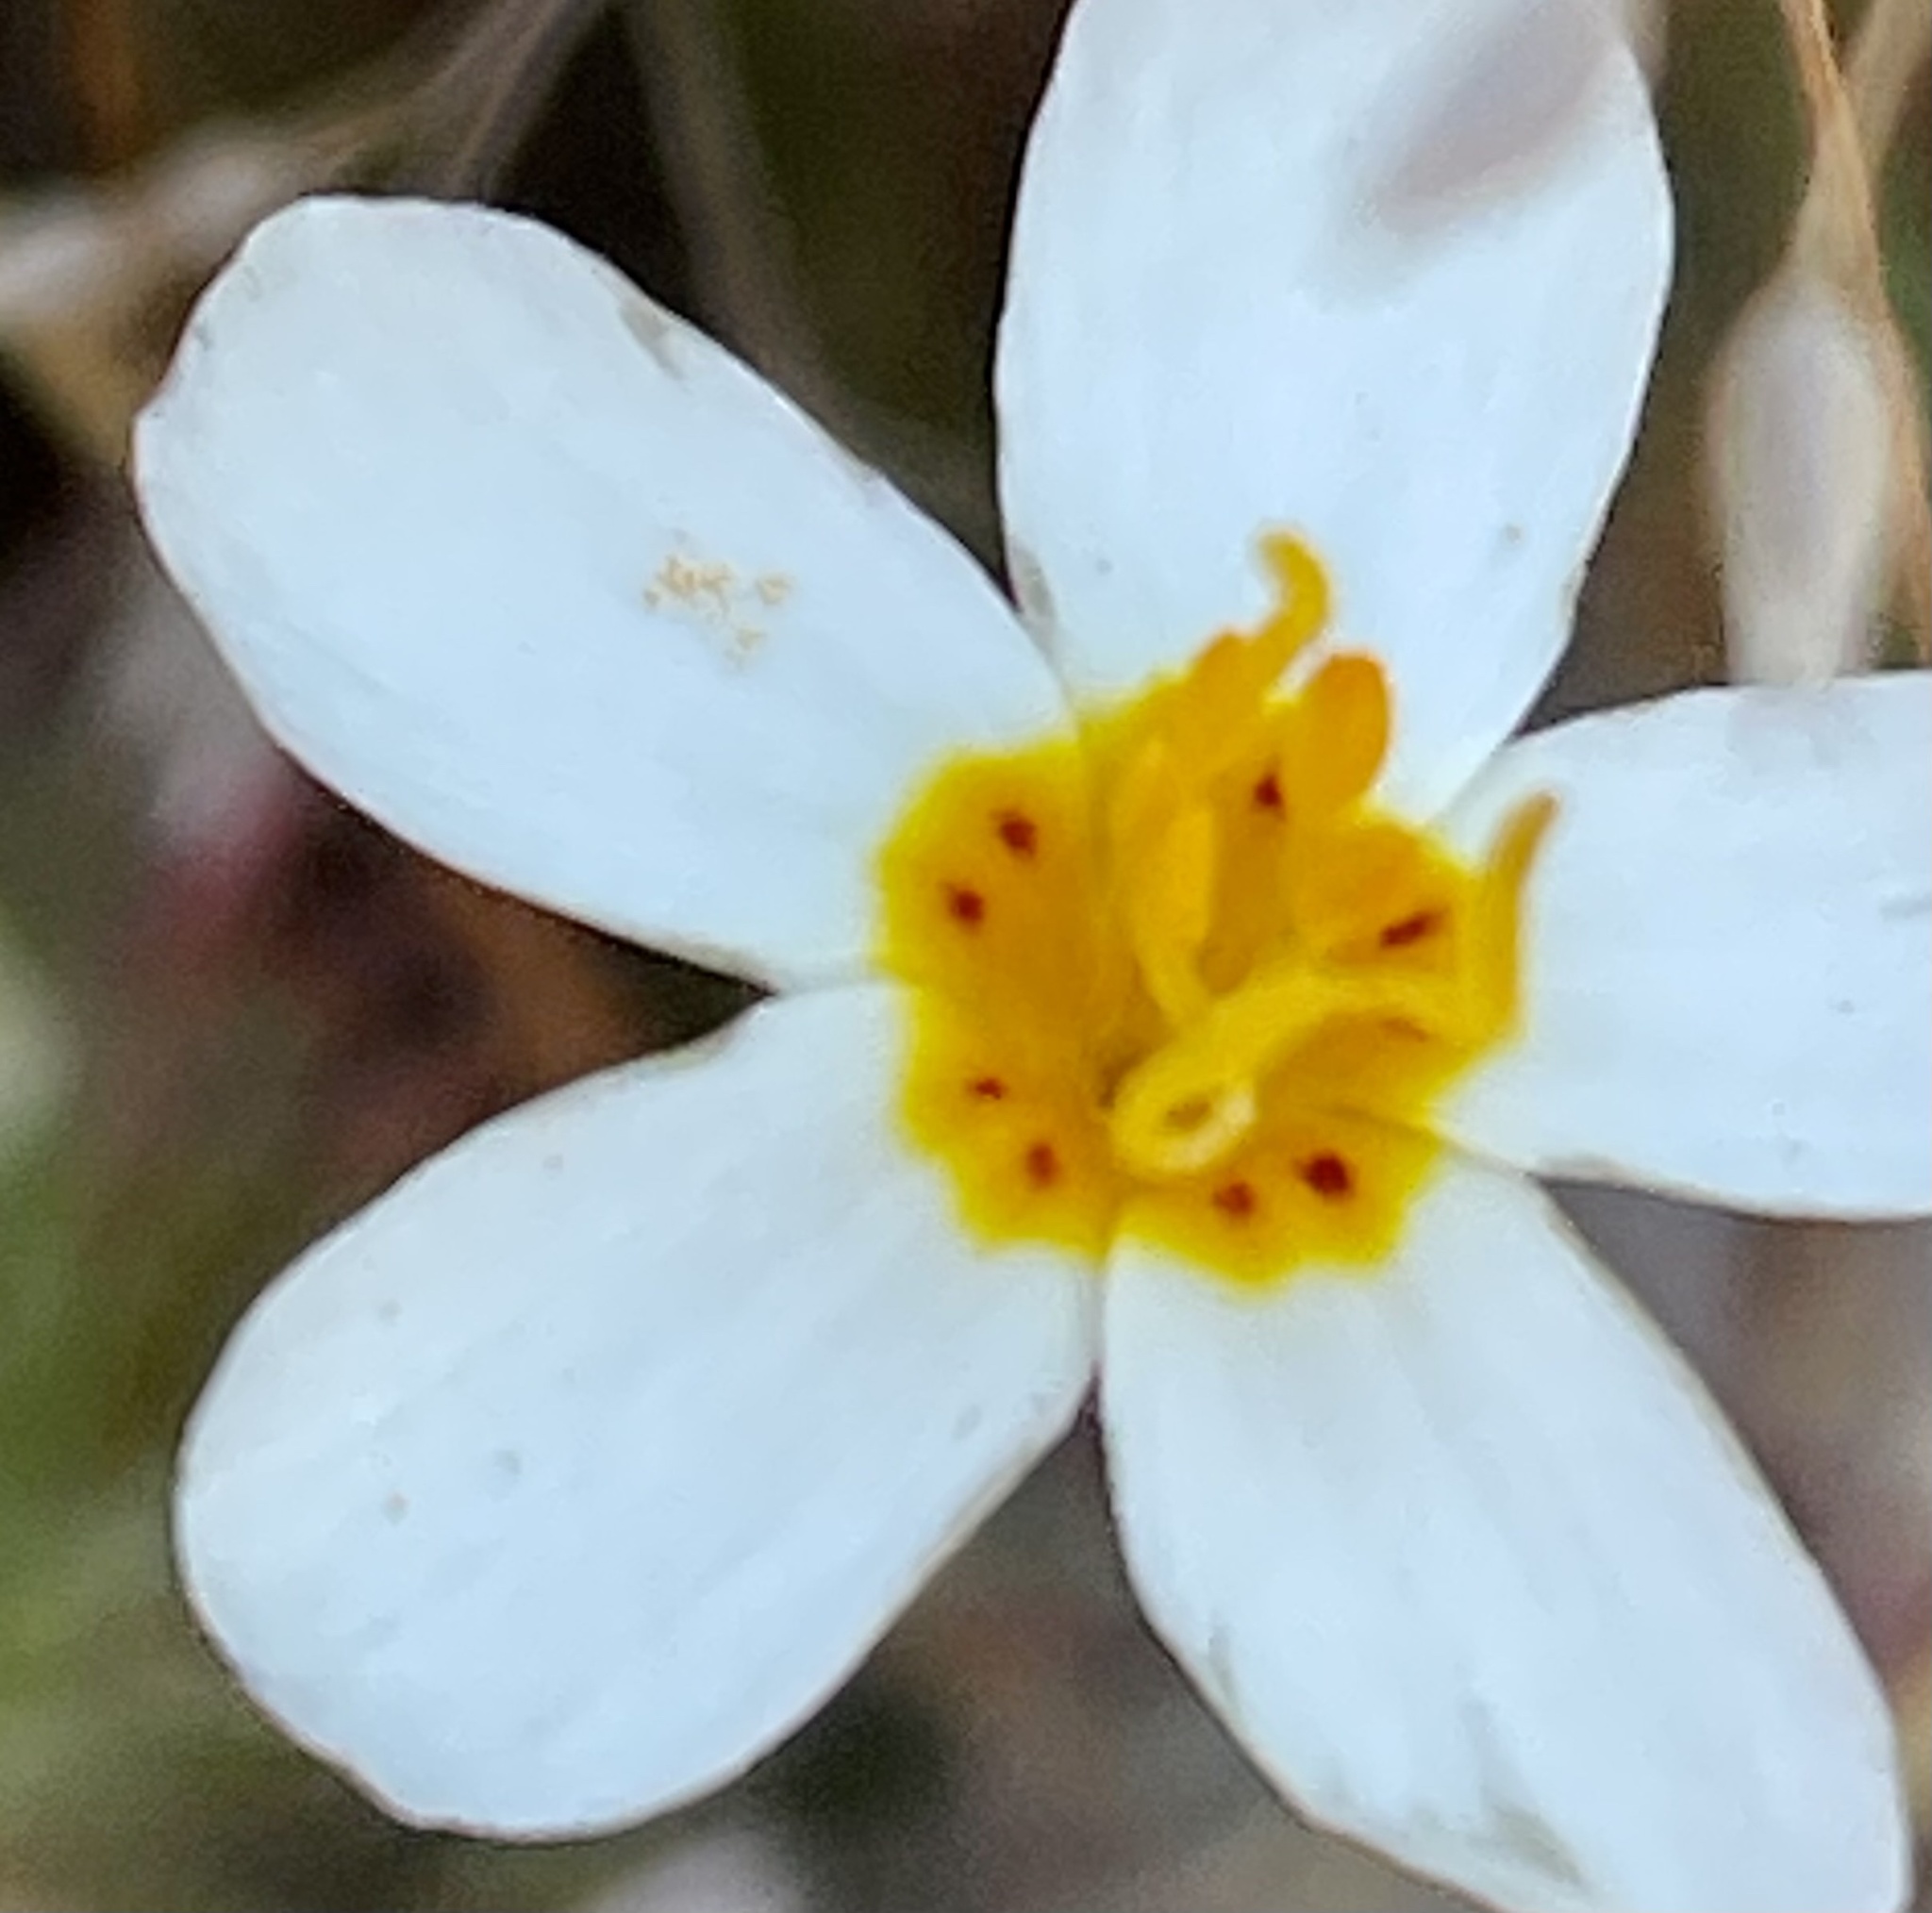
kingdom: Plantae
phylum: Tracheophyta
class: Magnoliopsida
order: Ericales
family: Polemoniaceae
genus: Leptosiphon
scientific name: Leptosiphon parviflorus
